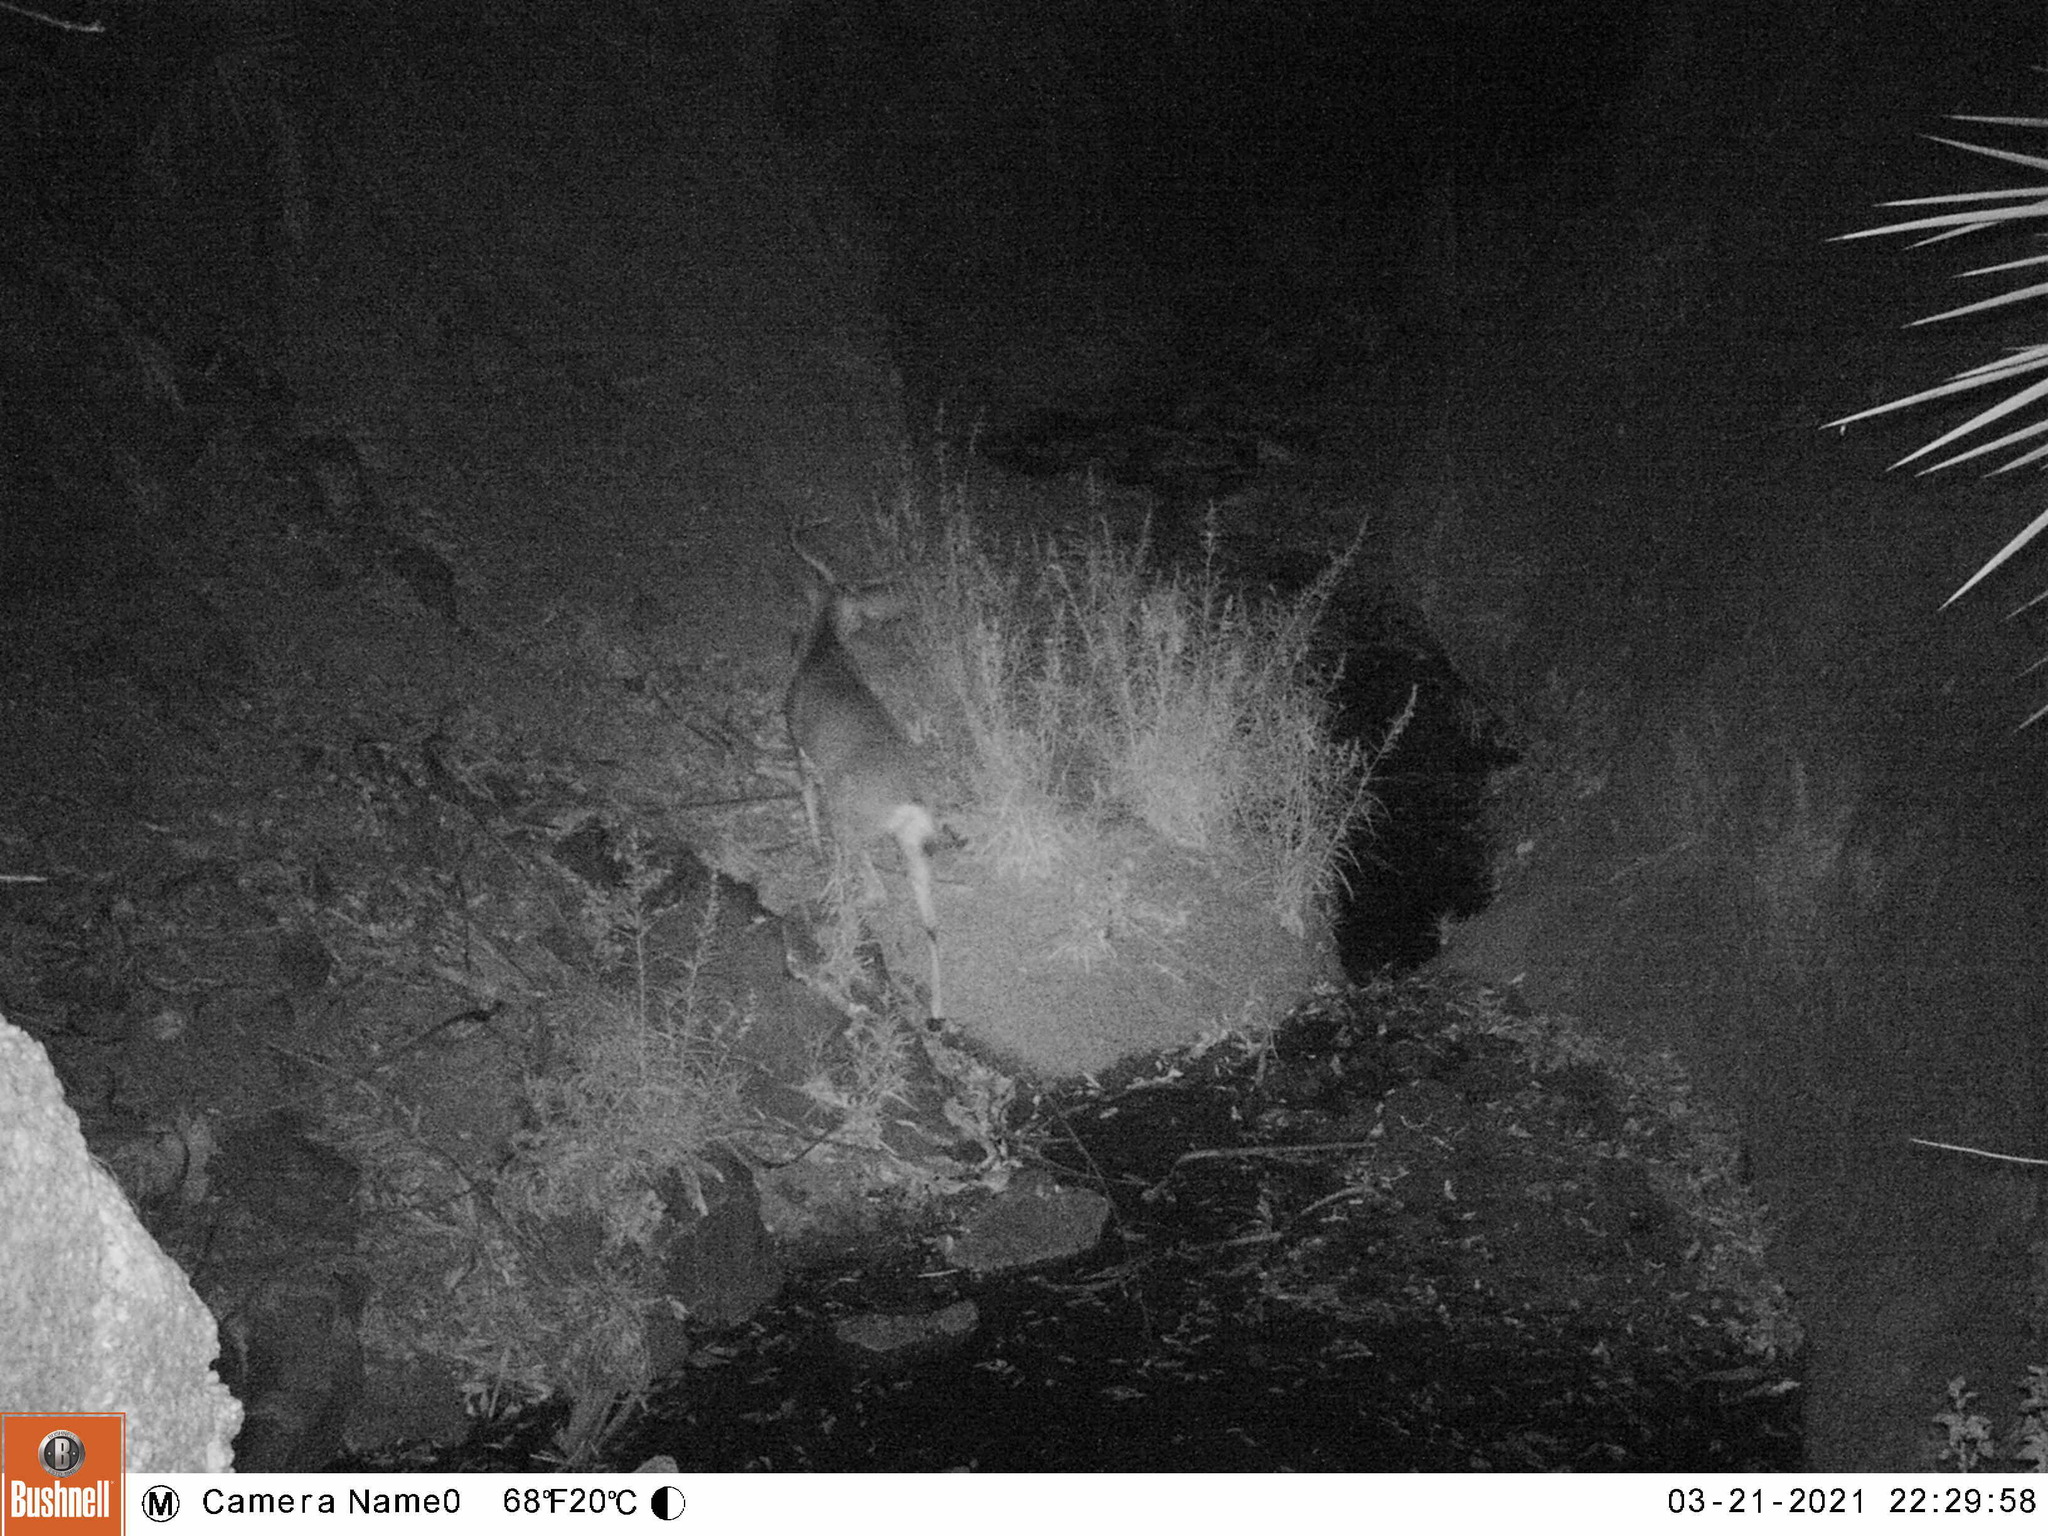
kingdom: Animalia
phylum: Chordata
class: Mammalia
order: Artiodactyla
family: Cervidae
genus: Odocoileus
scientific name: Odocoileus hemionus
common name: Mule deer
